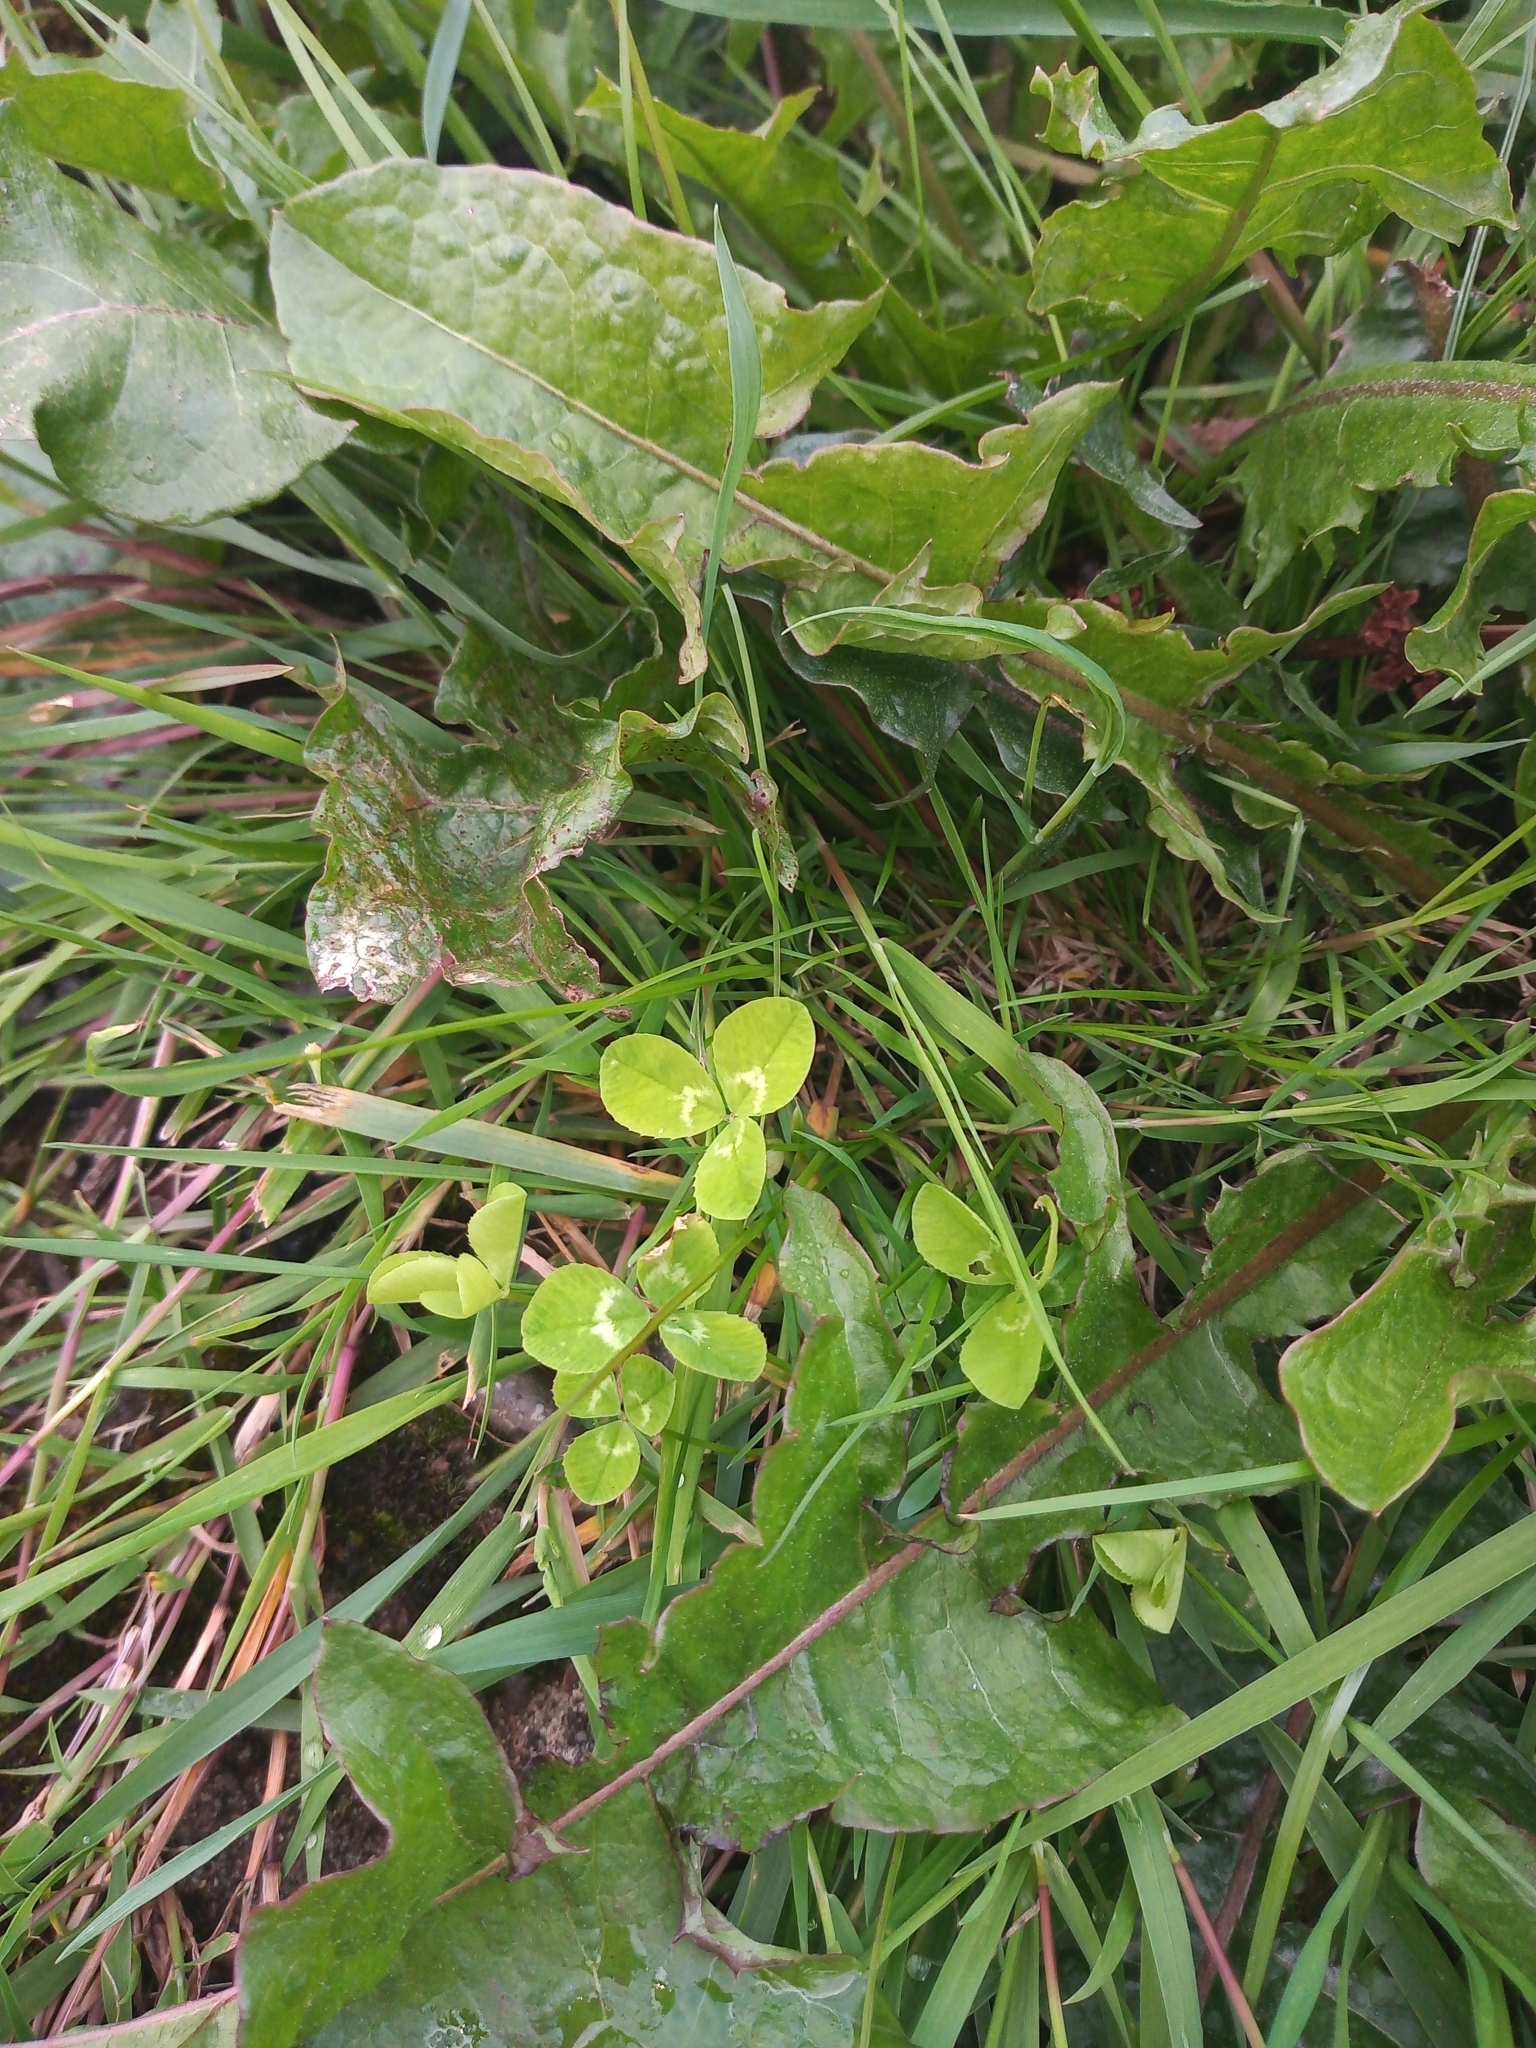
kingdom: Plantae
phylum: Tracheophyta
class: Magnoliopsida
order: Fabales
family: Fabaceae
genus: Trifolium
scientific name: Trifolium repens
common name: White clover
